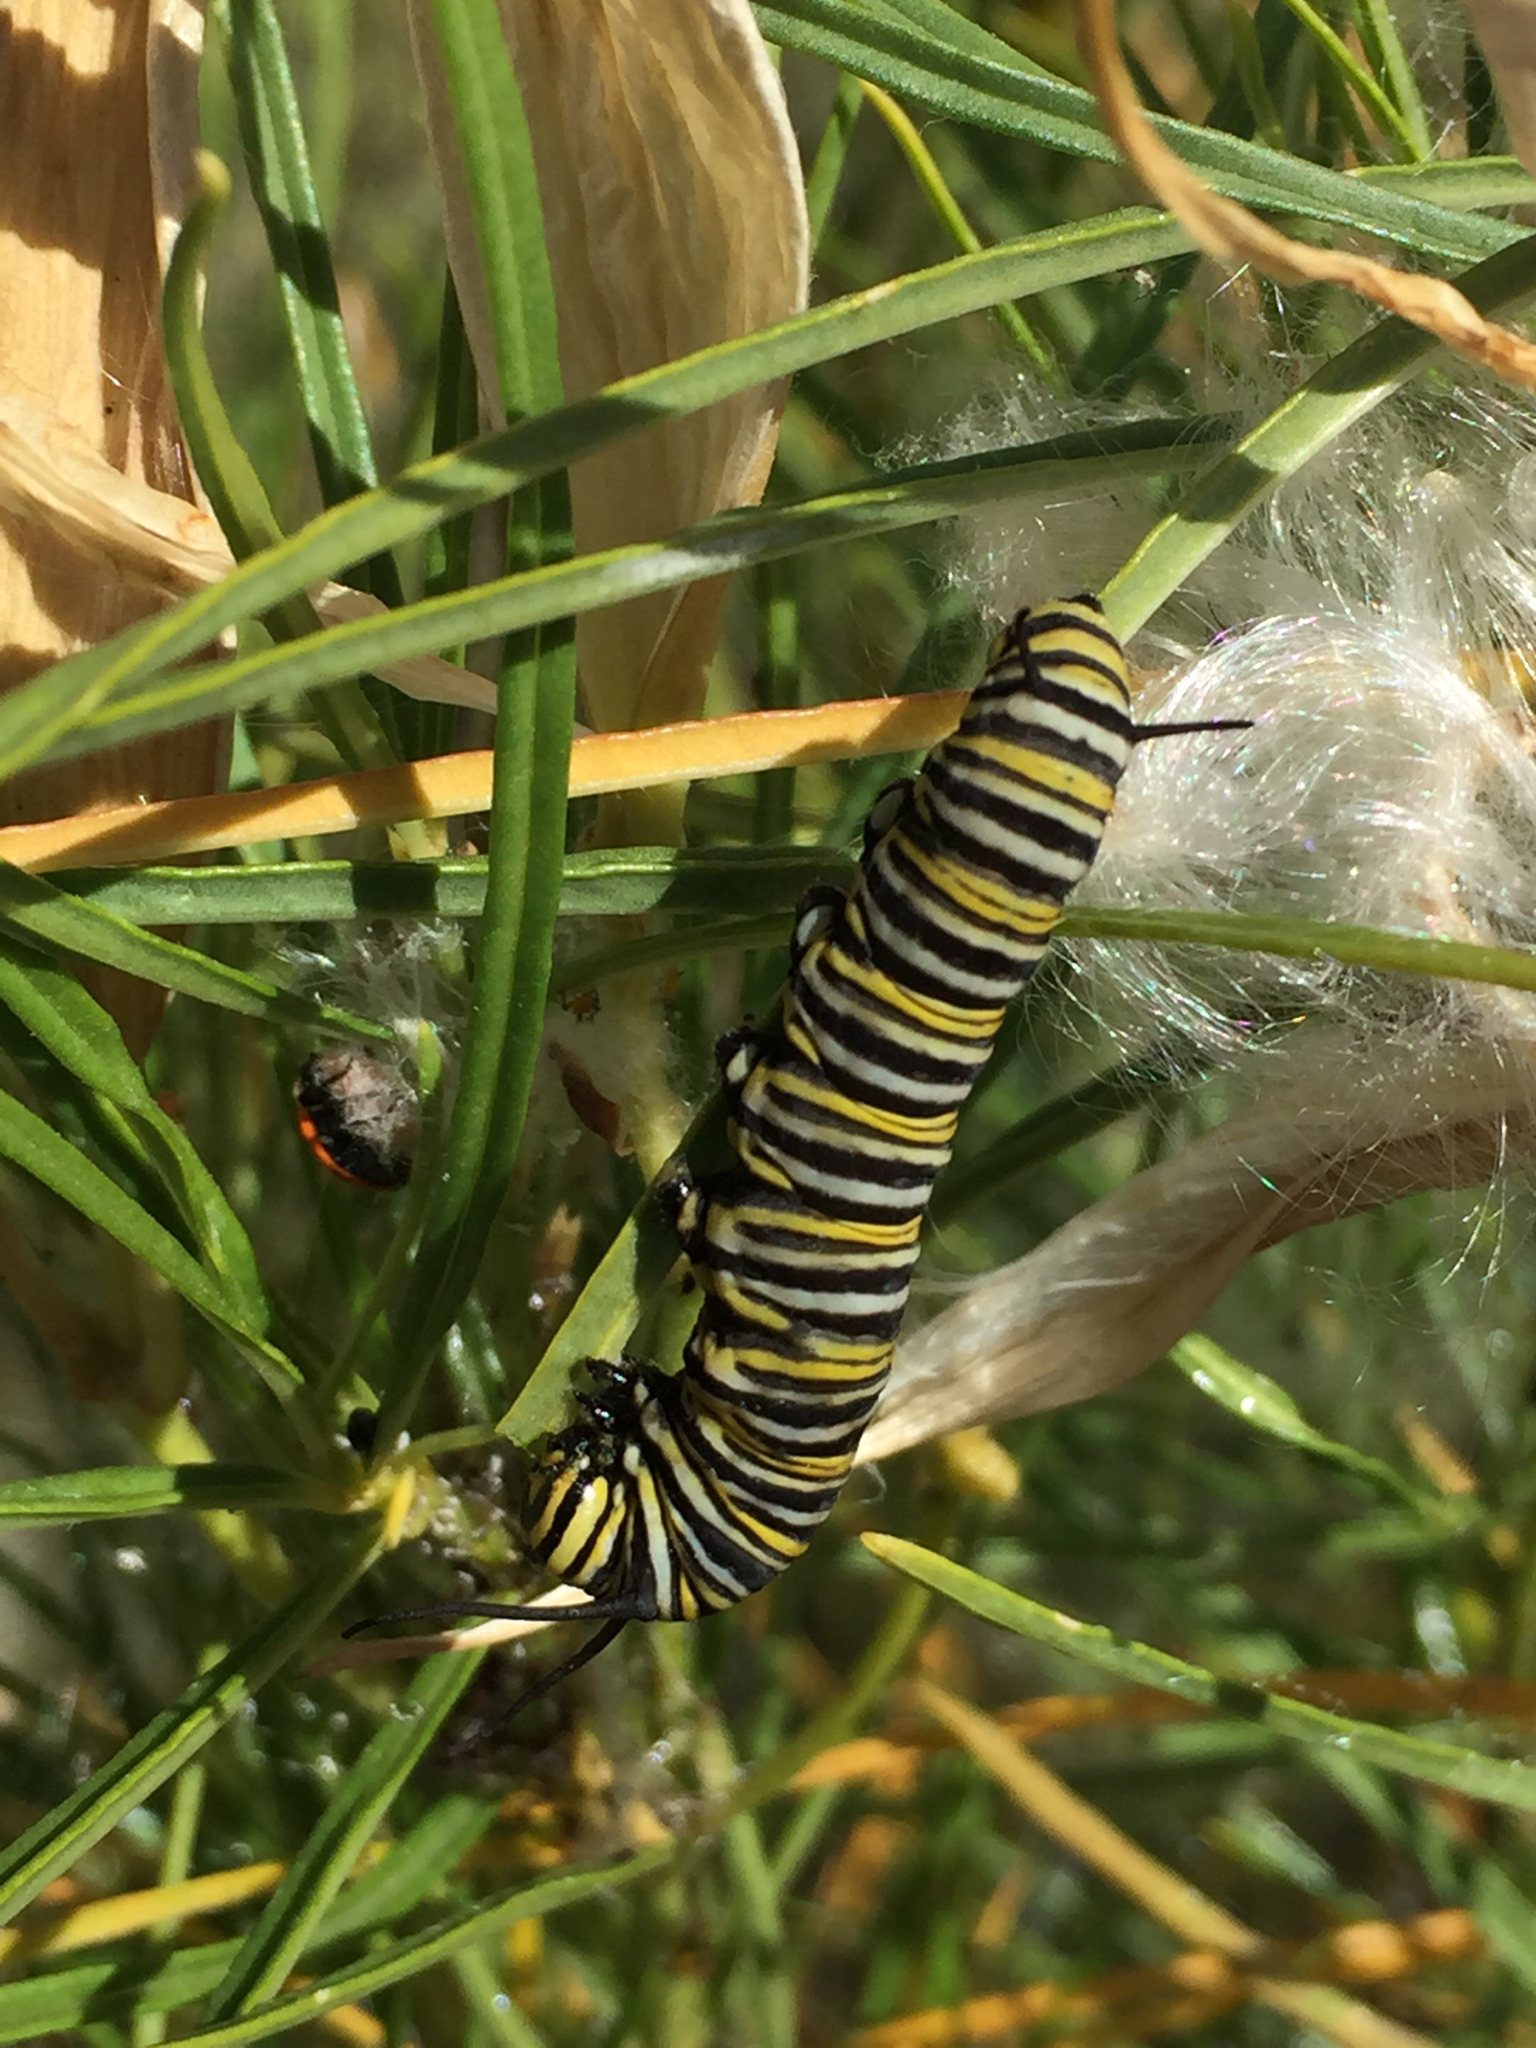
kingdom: Animalia
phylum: Arthropoda
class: Insecta
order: Lepidoptera
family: Nymphalidae
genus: Danaus
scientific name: Danaus plexippus
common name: Monarch
